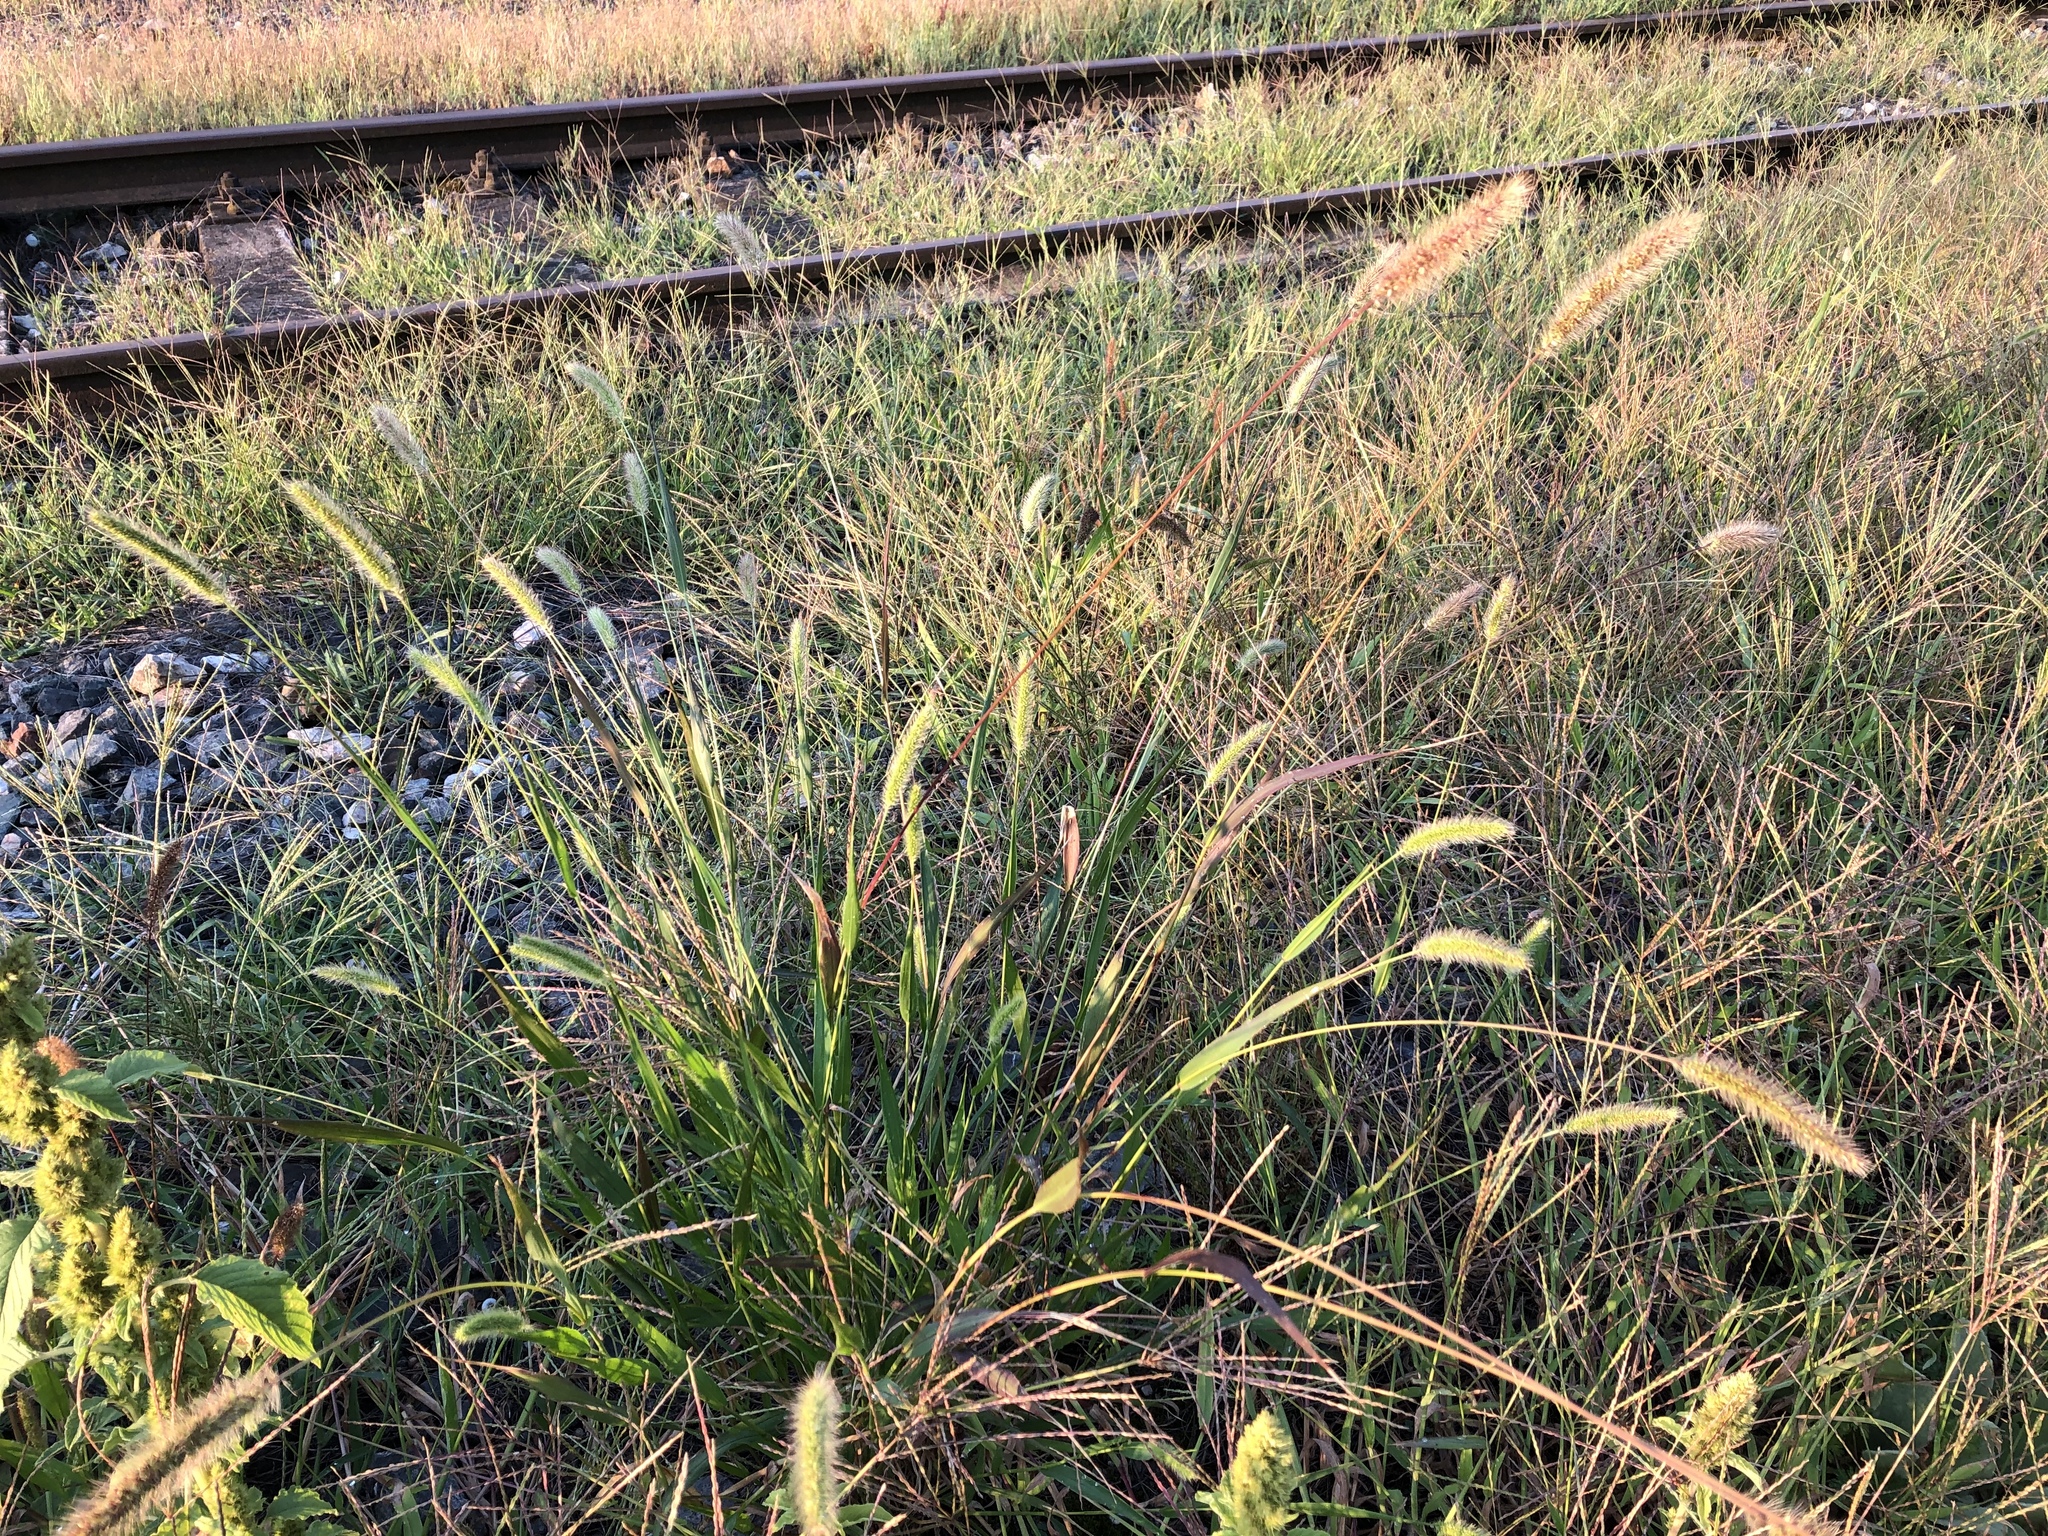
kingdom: Plantae
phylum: Tracheophyta
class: Liliopsida
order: Poales
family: Poaceae
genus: Setaria
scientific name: Setaria viridis
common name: Green bristlegrass
